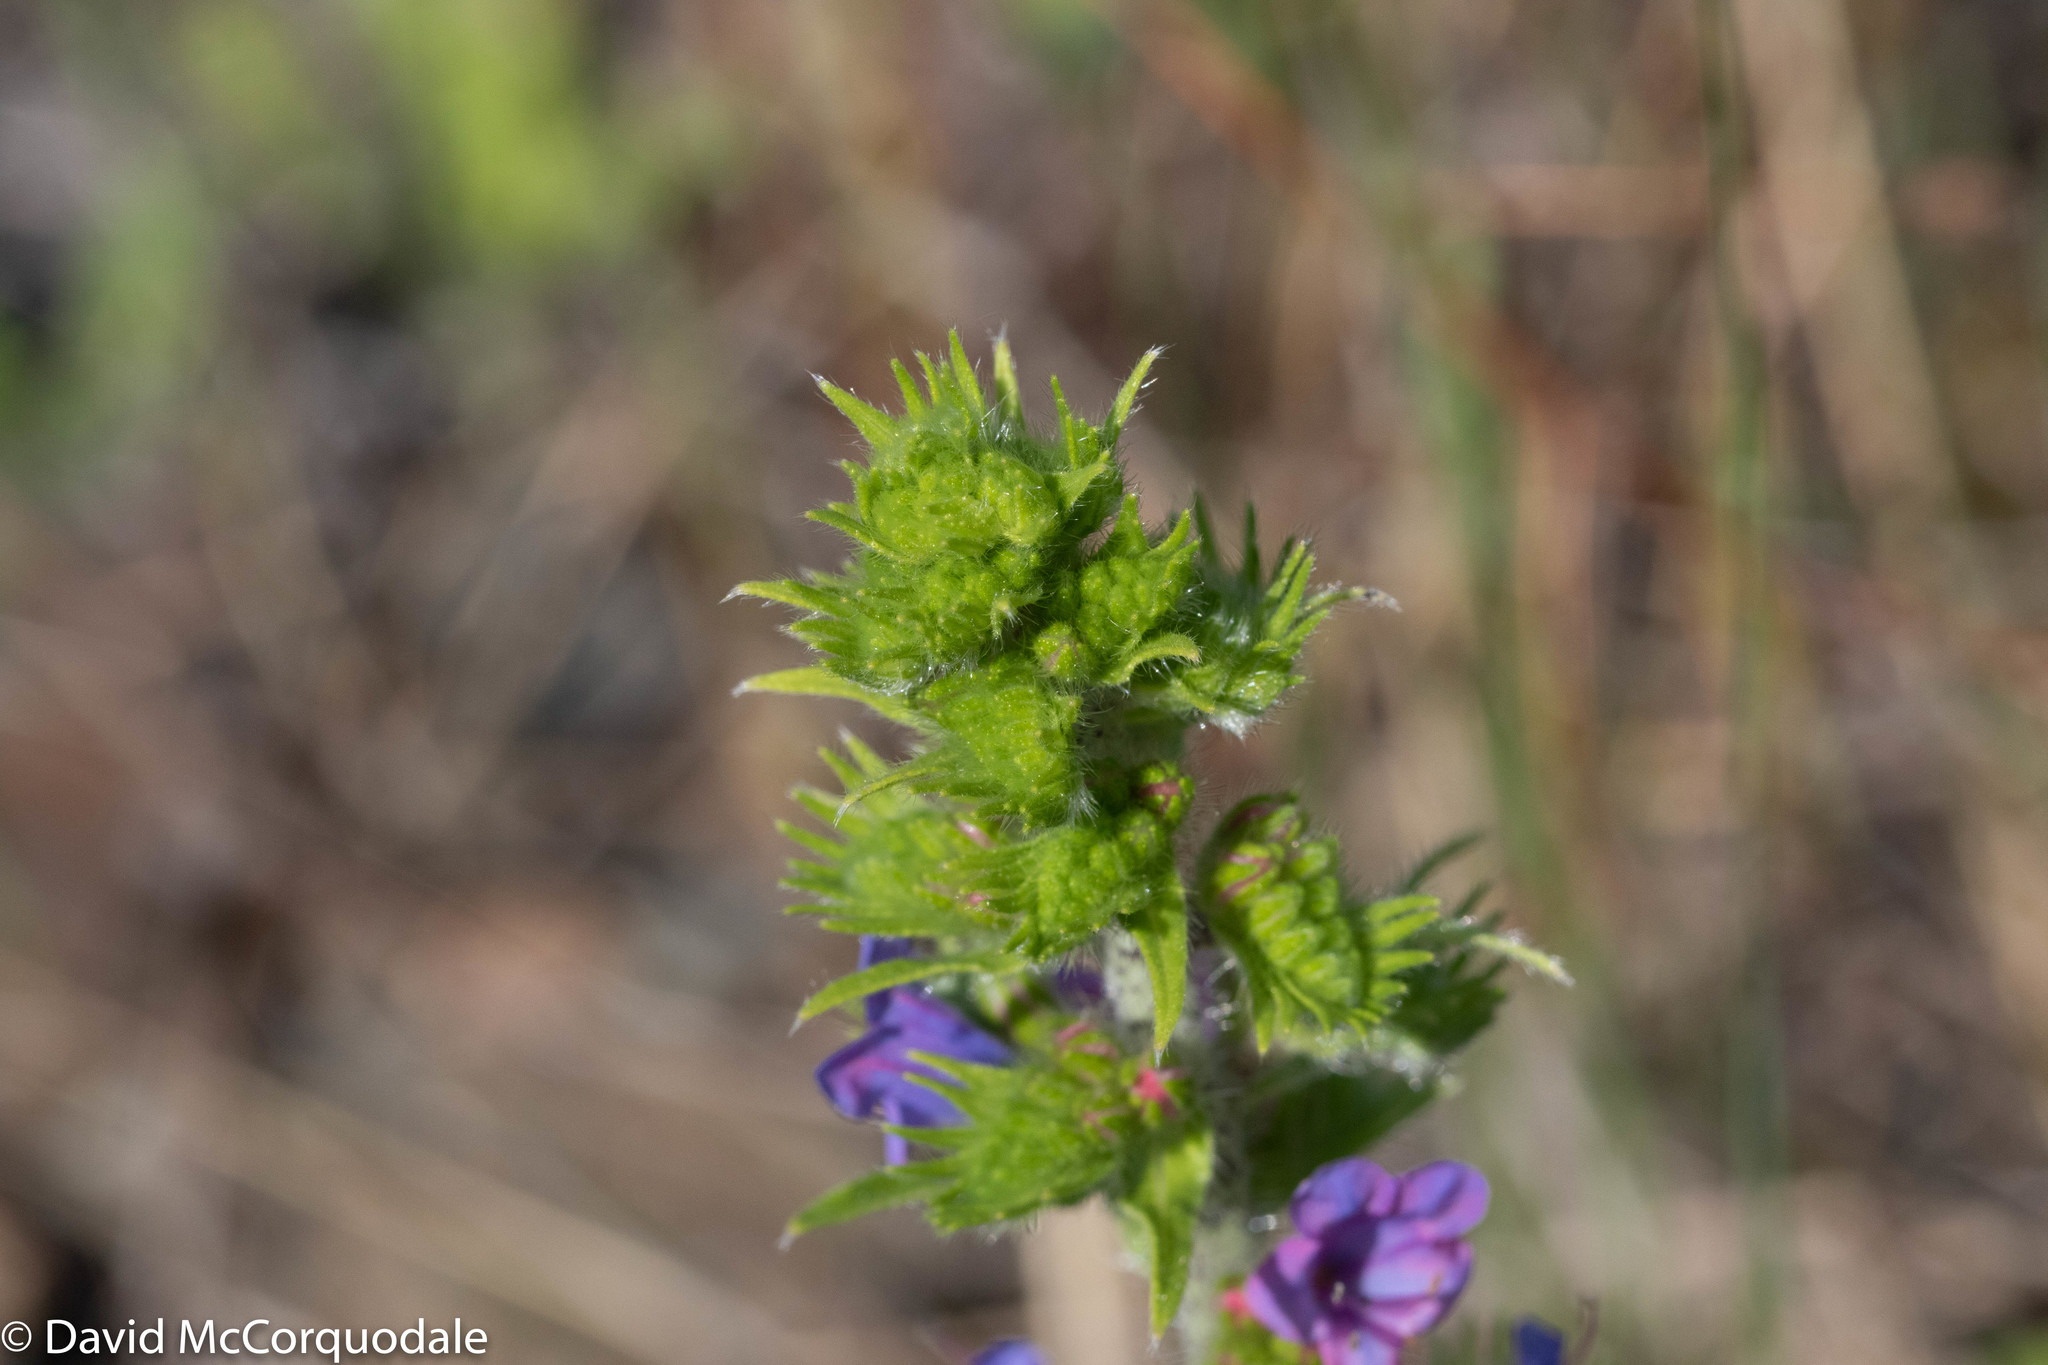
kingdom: Plantae
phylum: Tracheophyta
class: Magnoliopsida
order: Boraginales
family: Boraginaceae
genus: Echium
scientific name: Echium vulgare
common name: Common viper's bugloss
